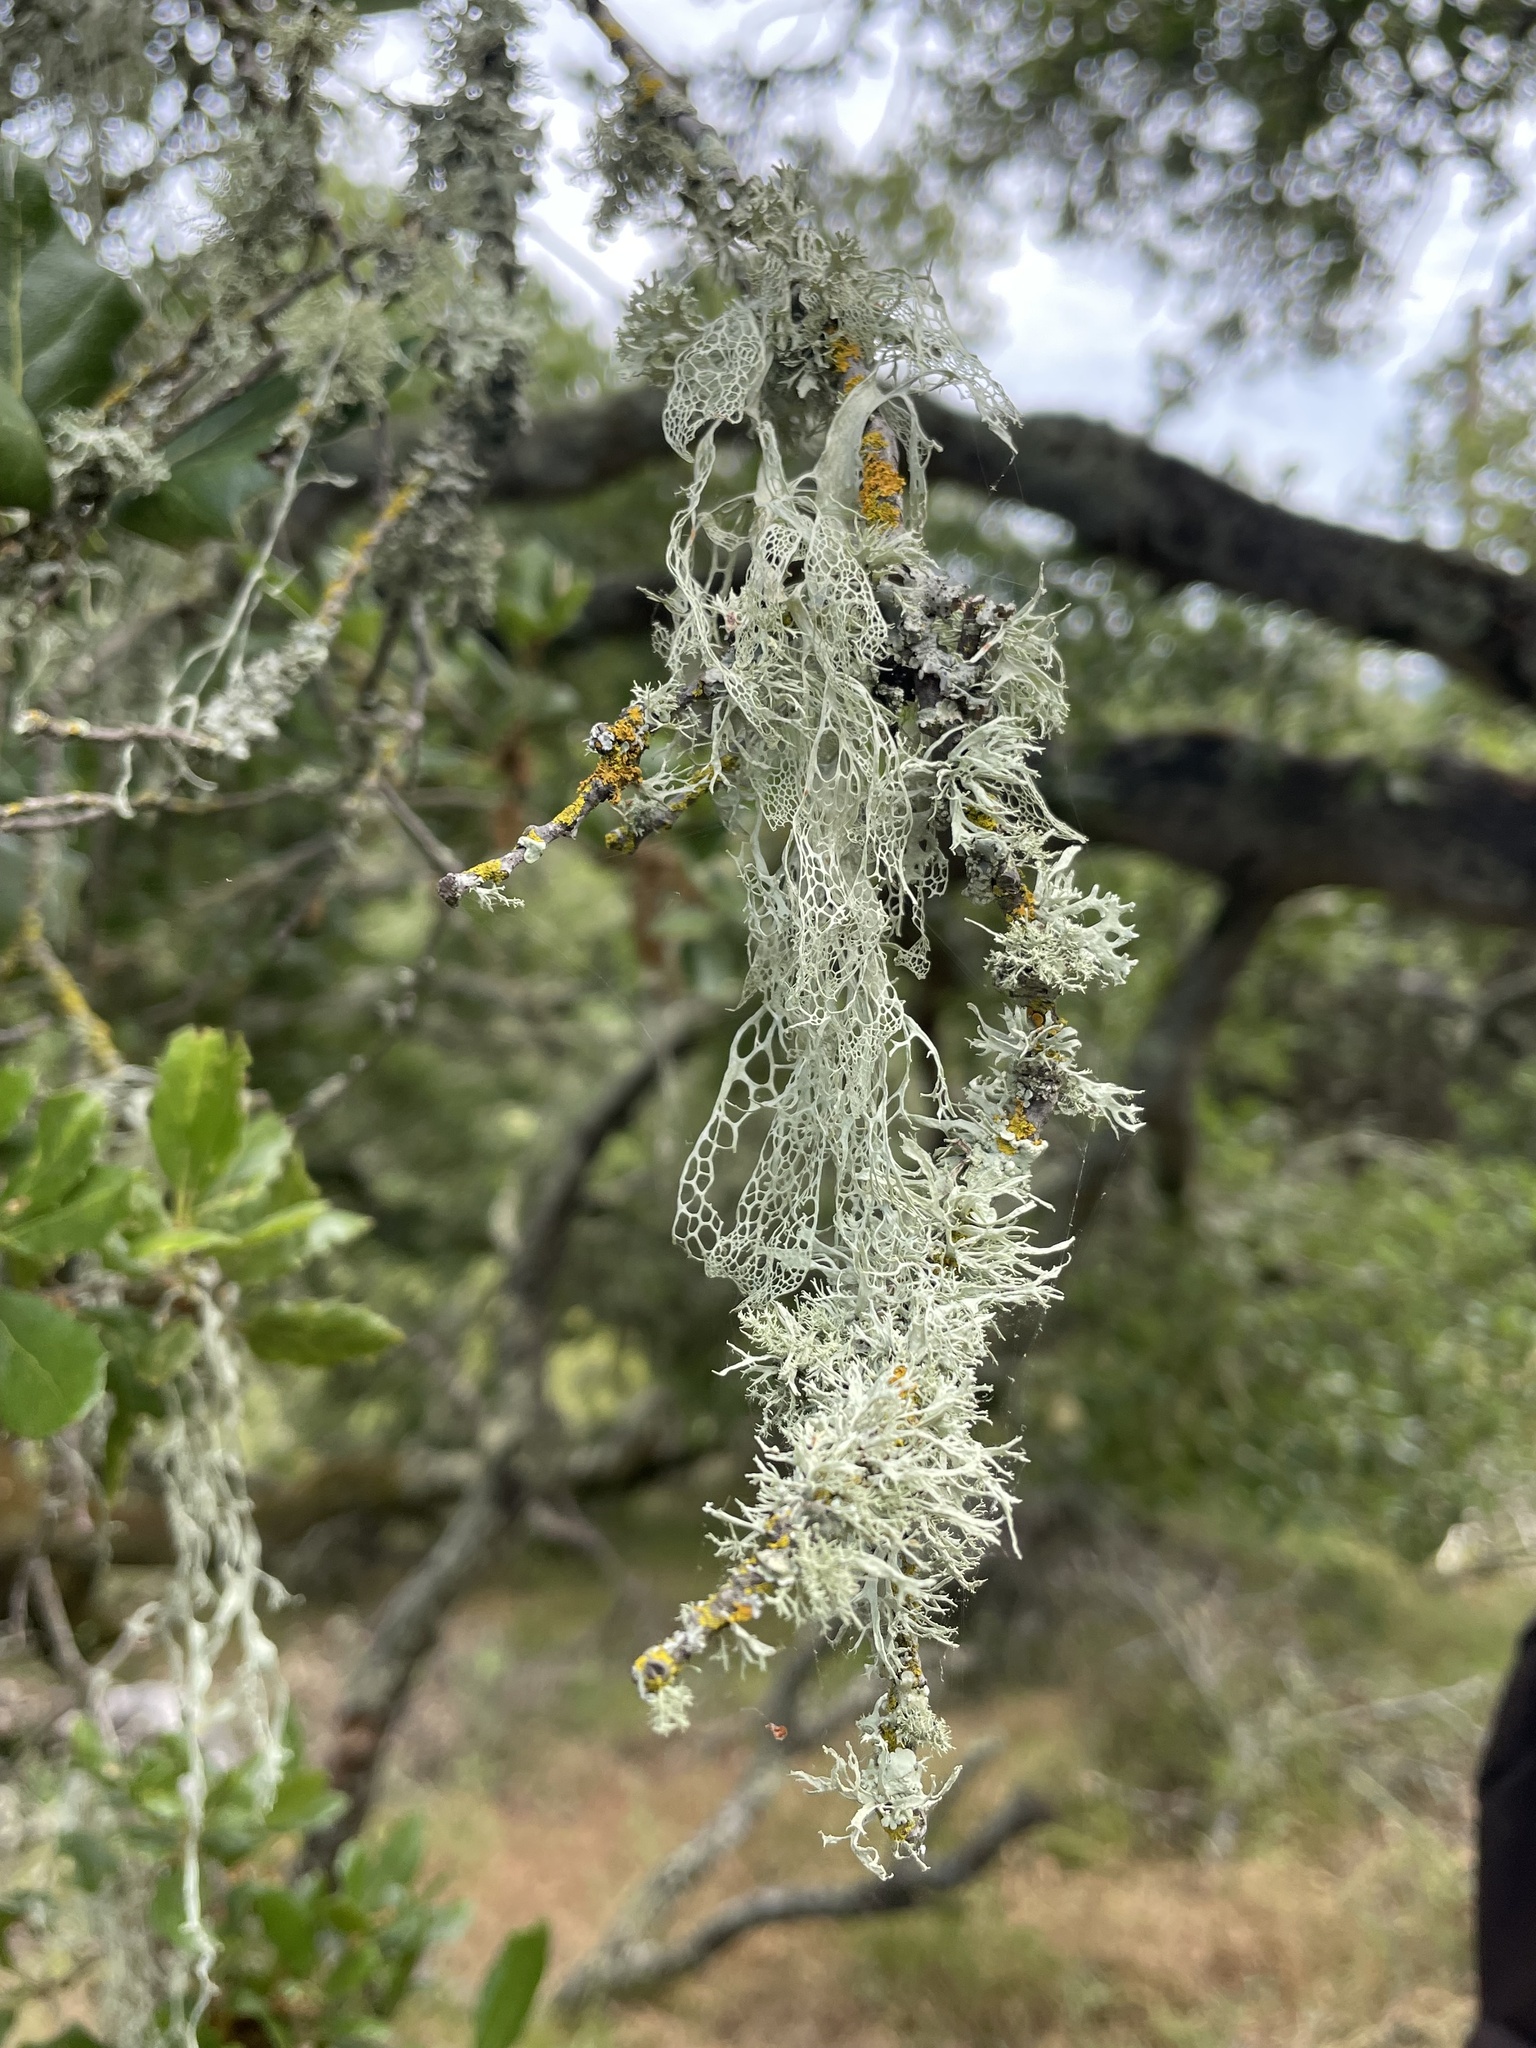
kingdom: Fungi
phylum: Ascomycota
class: Lecanoromycetes
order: Lecanorales
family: Ramalinaceae
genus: Ramalina
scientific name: Ramalina menziesii
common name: Lace lichen
